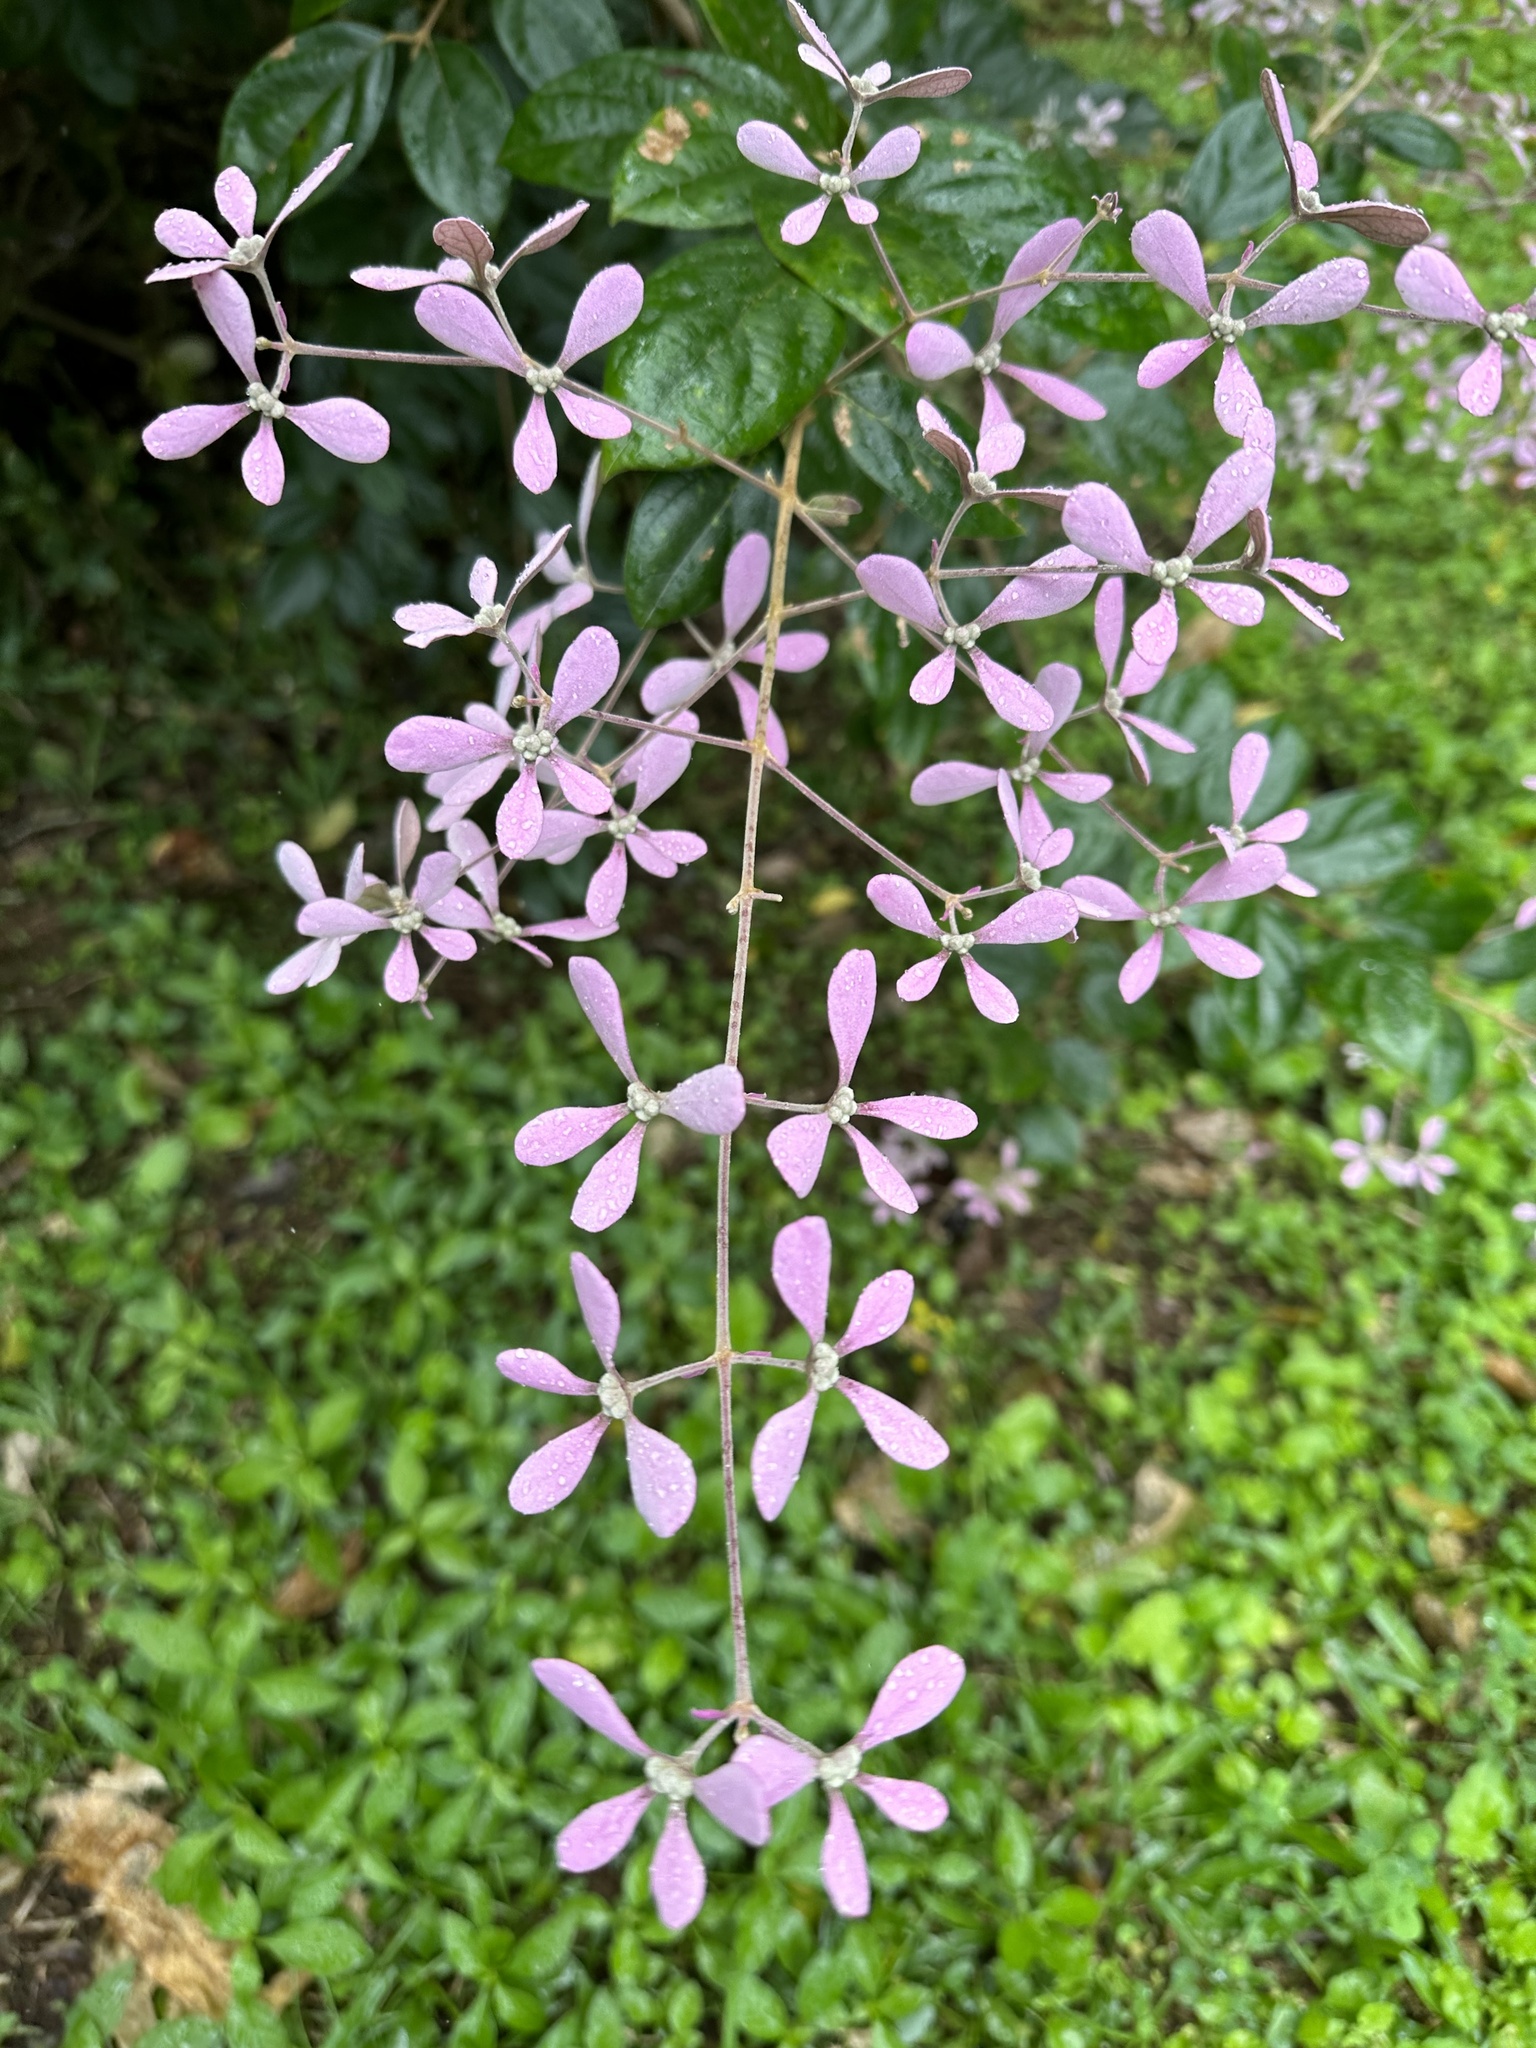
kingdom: Plantae
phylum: Tracheophyta
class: Magnoliopsida
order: Lamiales
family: Lamiaceae
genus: Congea
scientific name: Congea tomentosa
